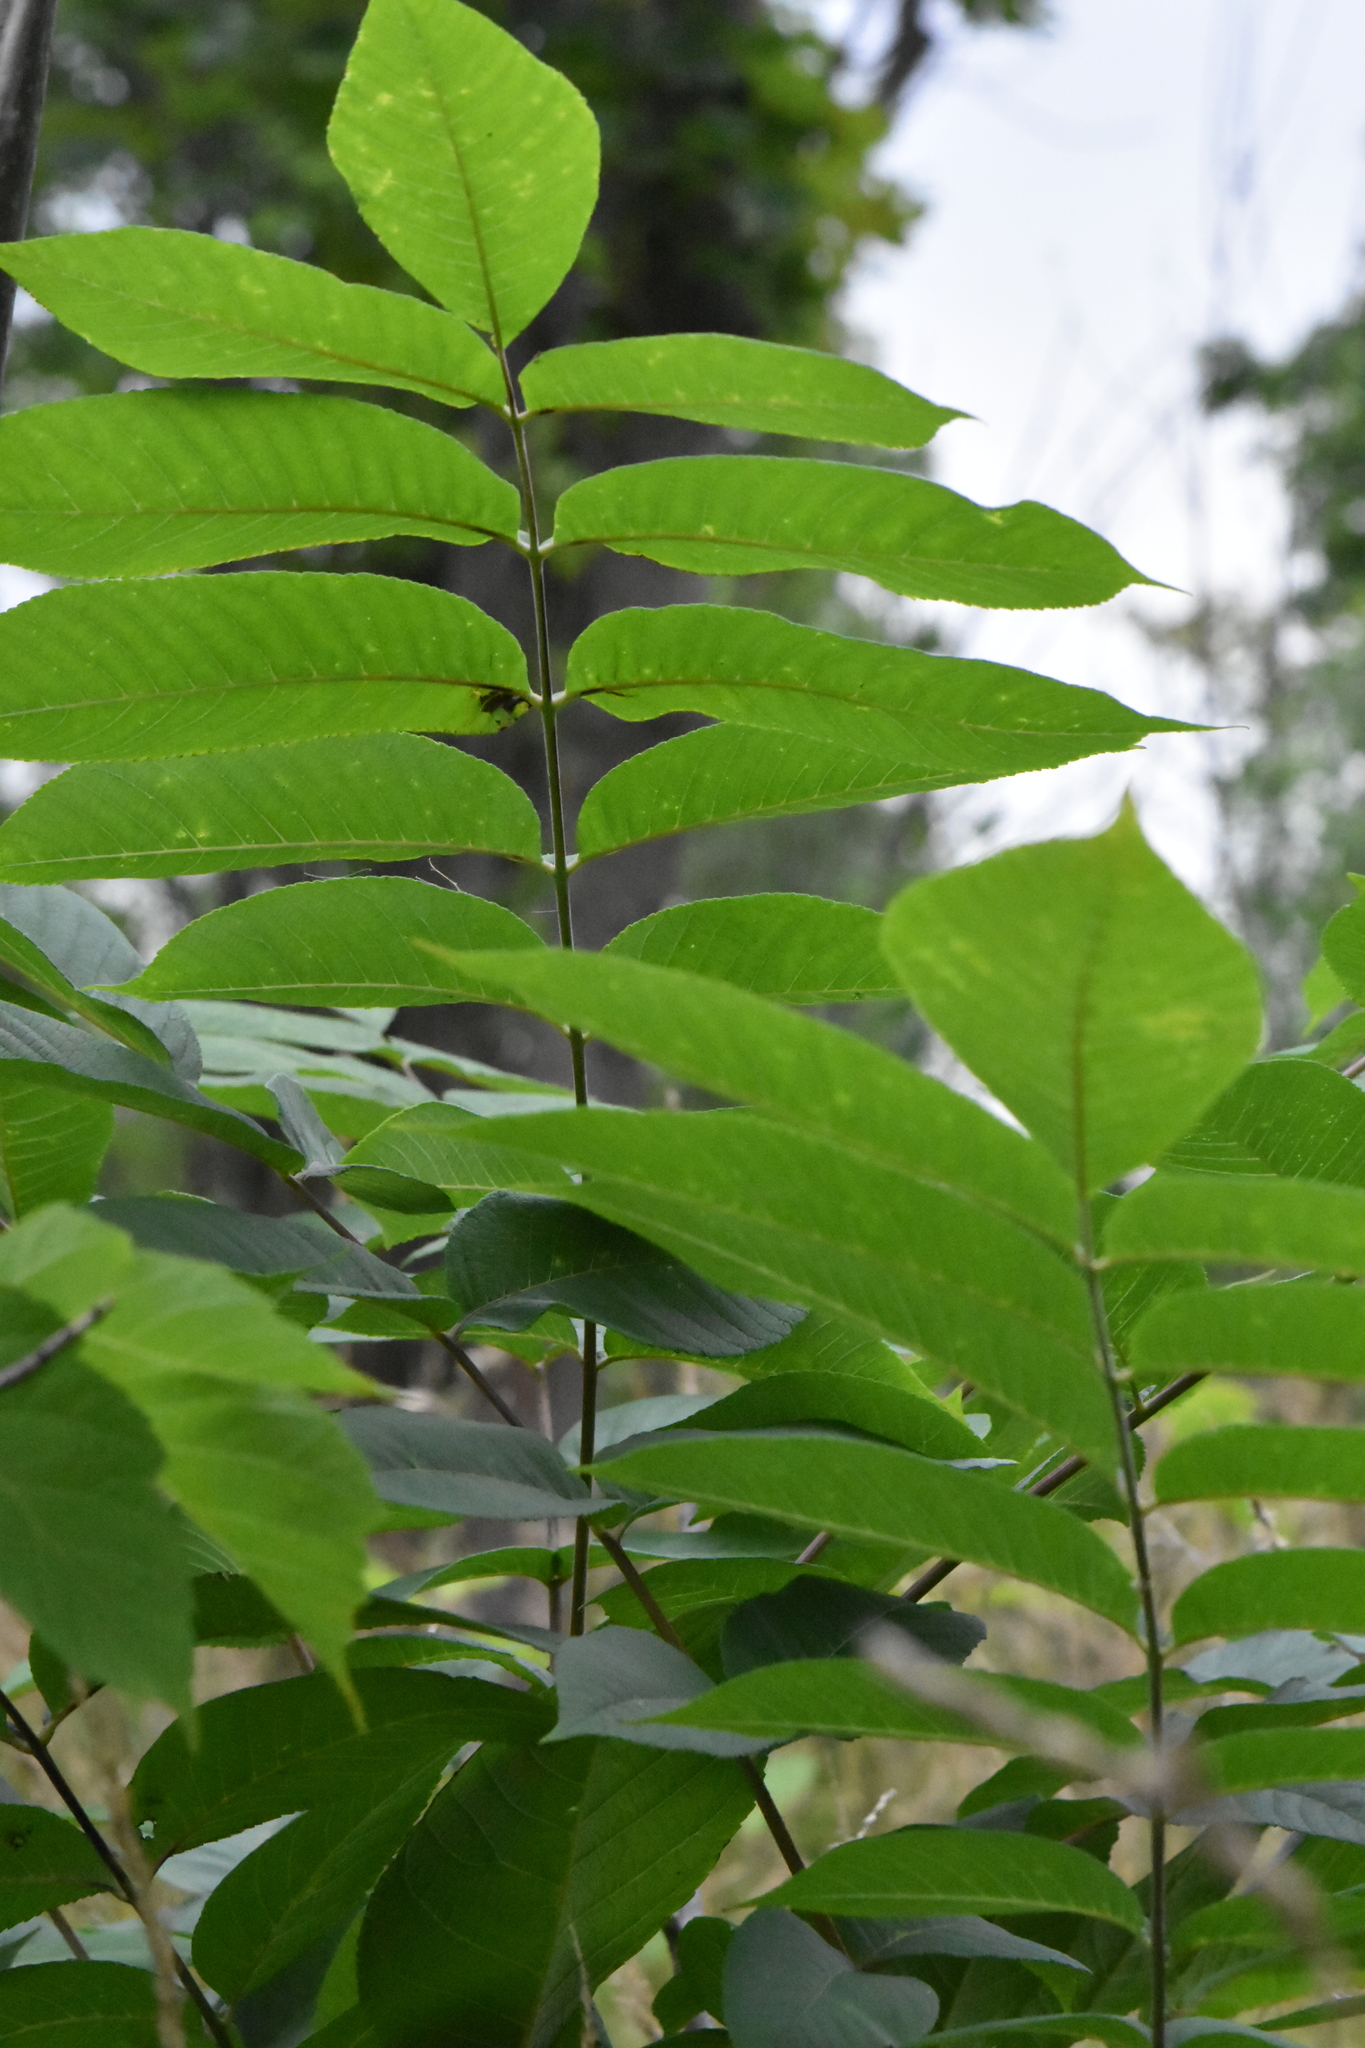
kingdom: Plantae
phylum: Tracheophyta
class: Magnoliopsida
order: Fagales
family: Juglandaceae
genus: Juglans
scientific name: Juglans mandshurica
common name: Manchurian walnut
